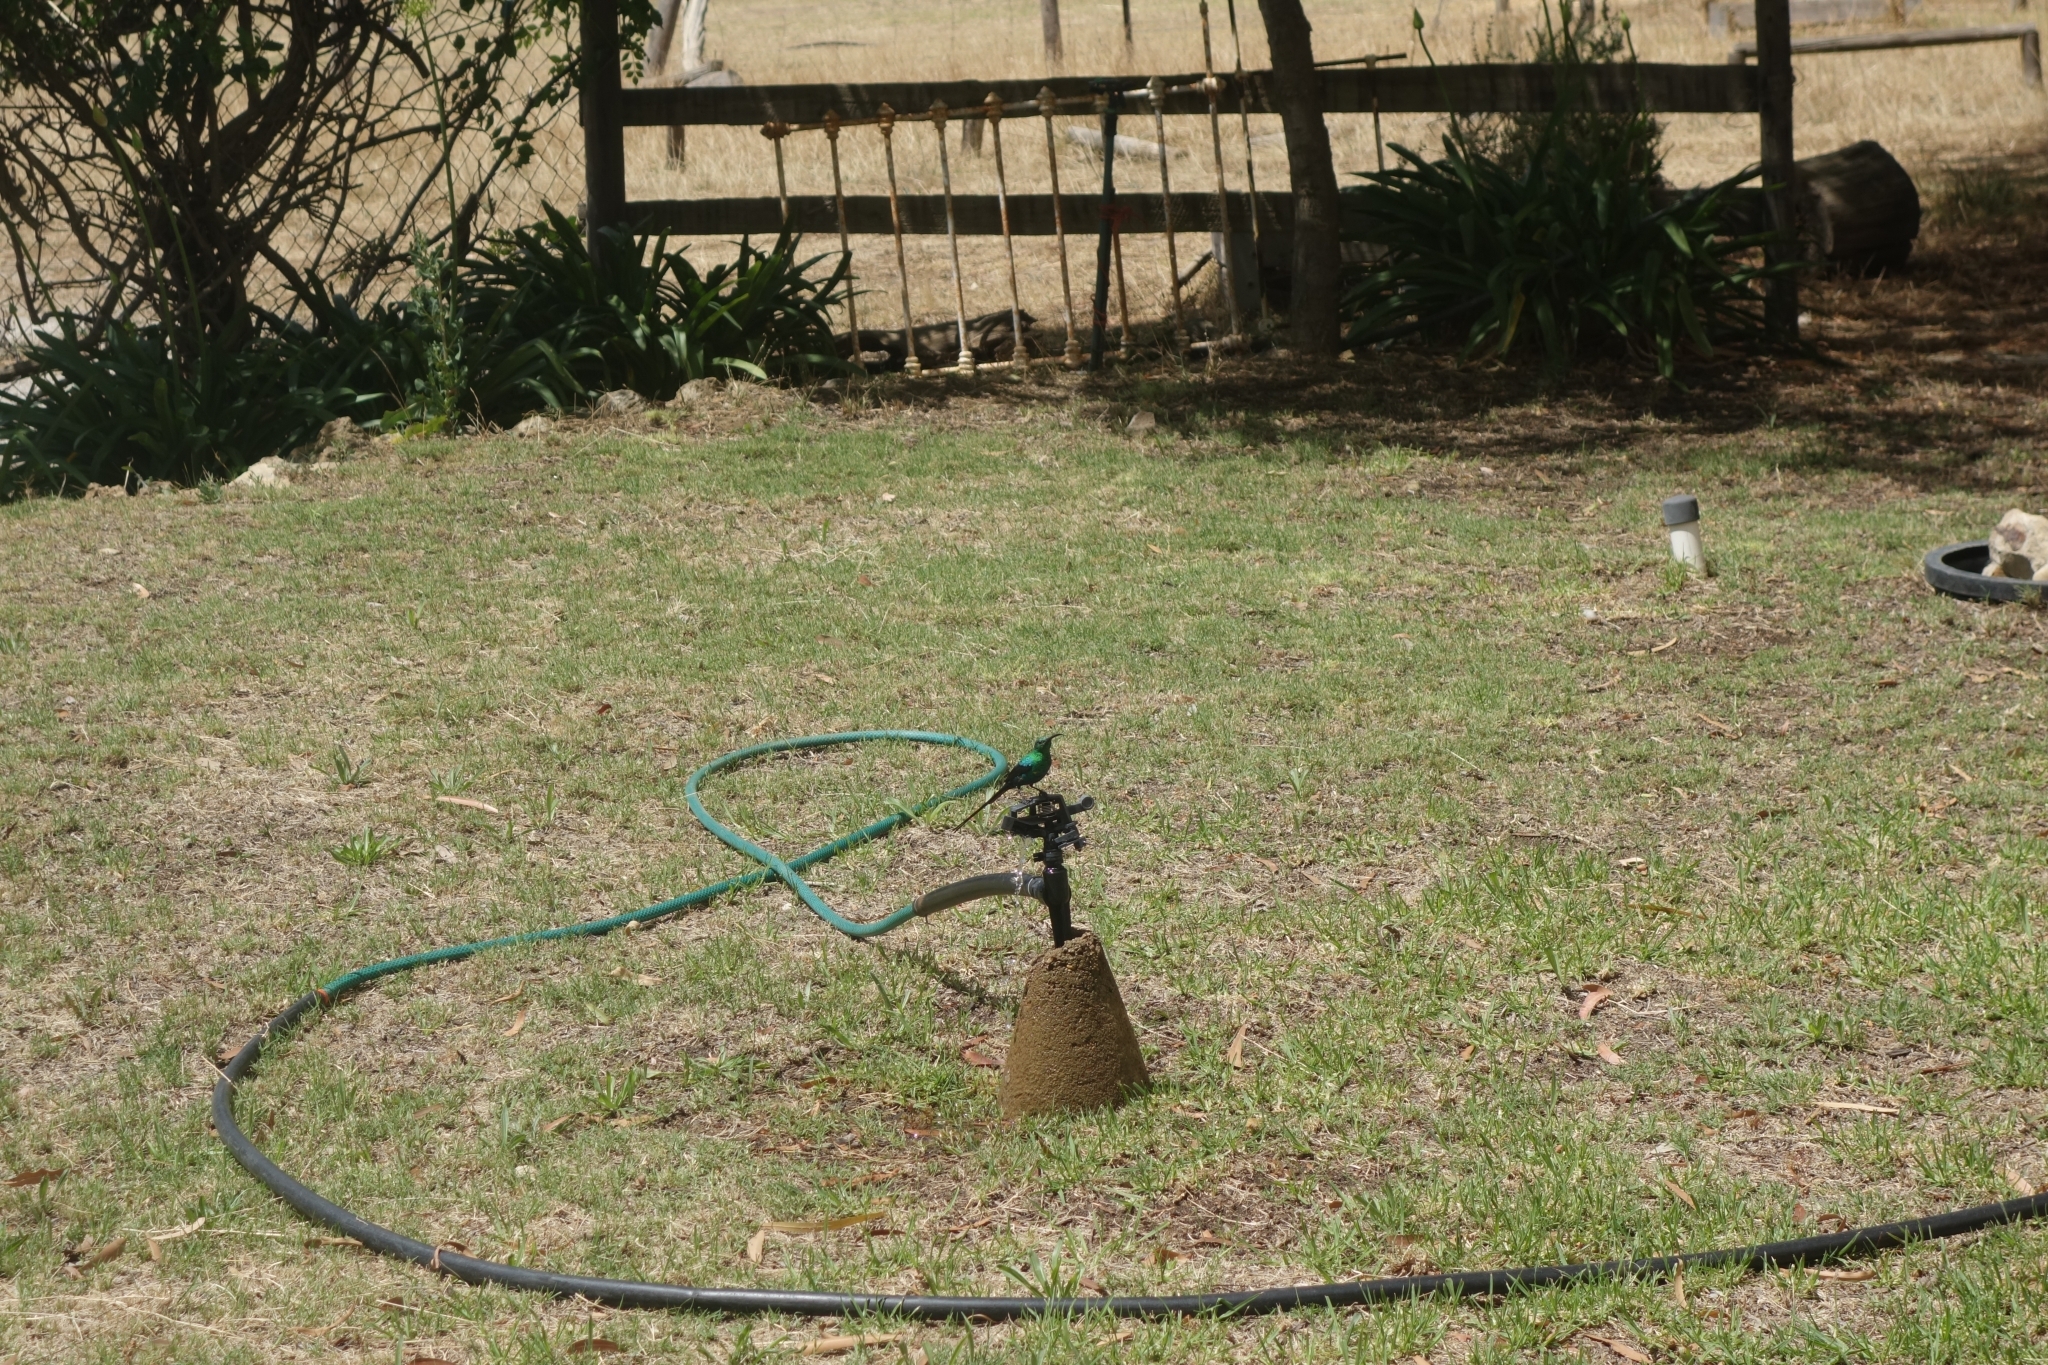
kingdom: Animalia
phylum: Chordata
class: Aves
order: Passeriformes
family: Nectariniidae
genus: Nectarinia
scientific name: Nectarinia famosa
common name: Malachite sunbird
